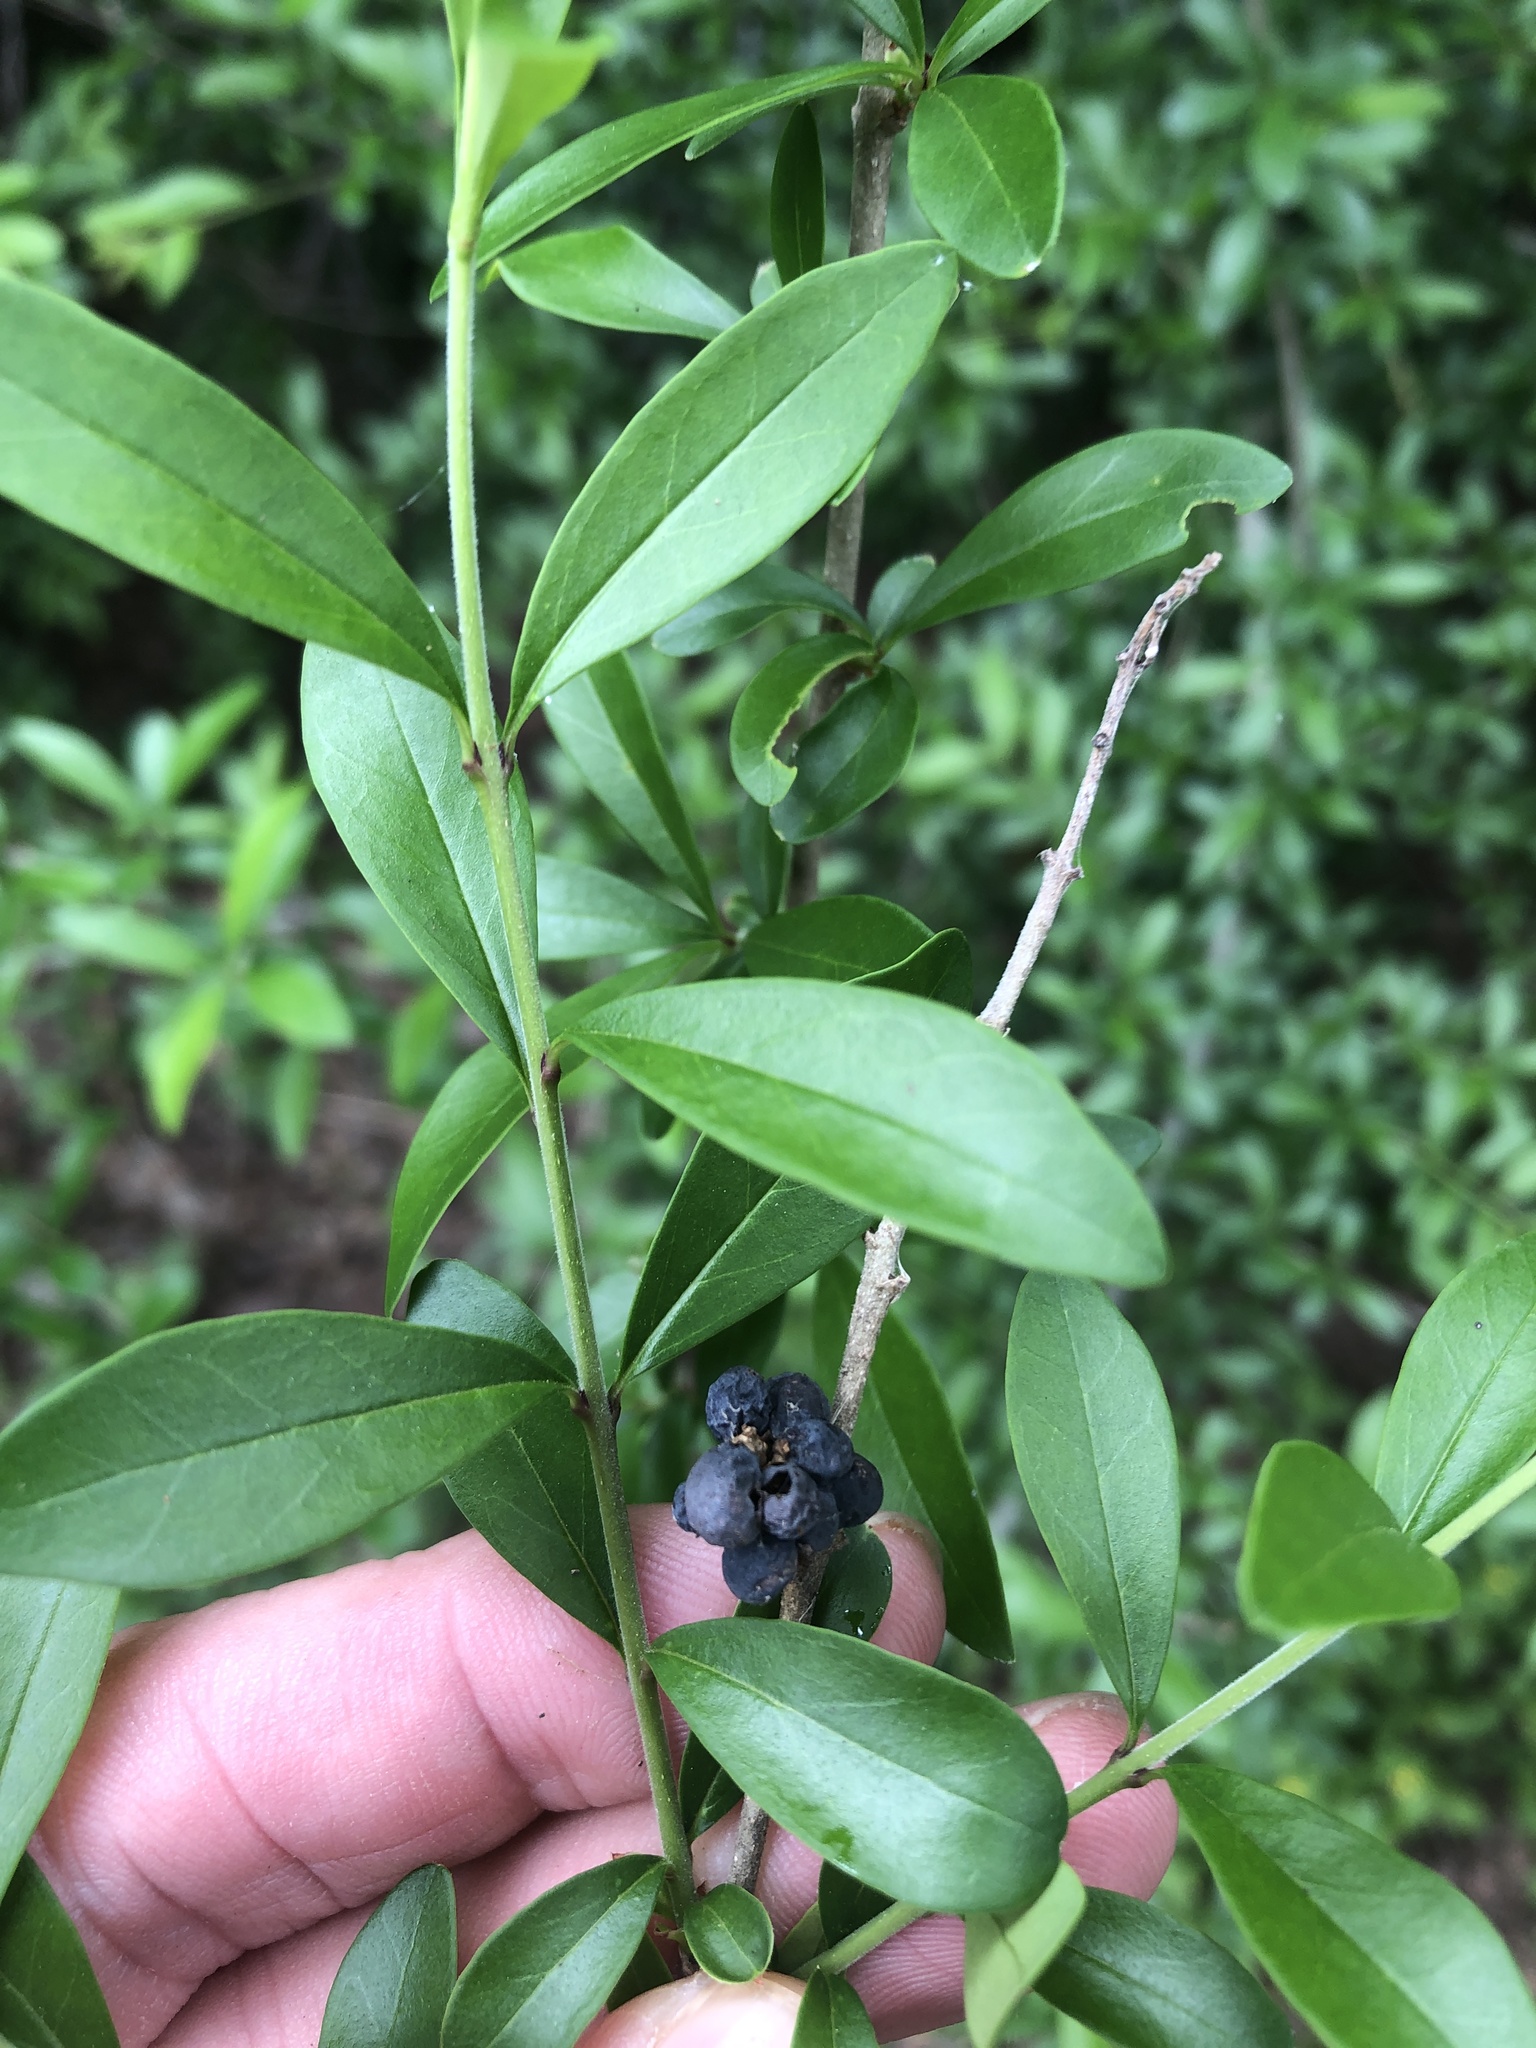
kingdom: Plantae
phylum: Tracheophyta
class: Magnoliopsida
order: Lamiales
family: Oleaceae
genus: Ligustrum
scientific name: Ligustrum quihoui
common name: Waxyleaf privet
